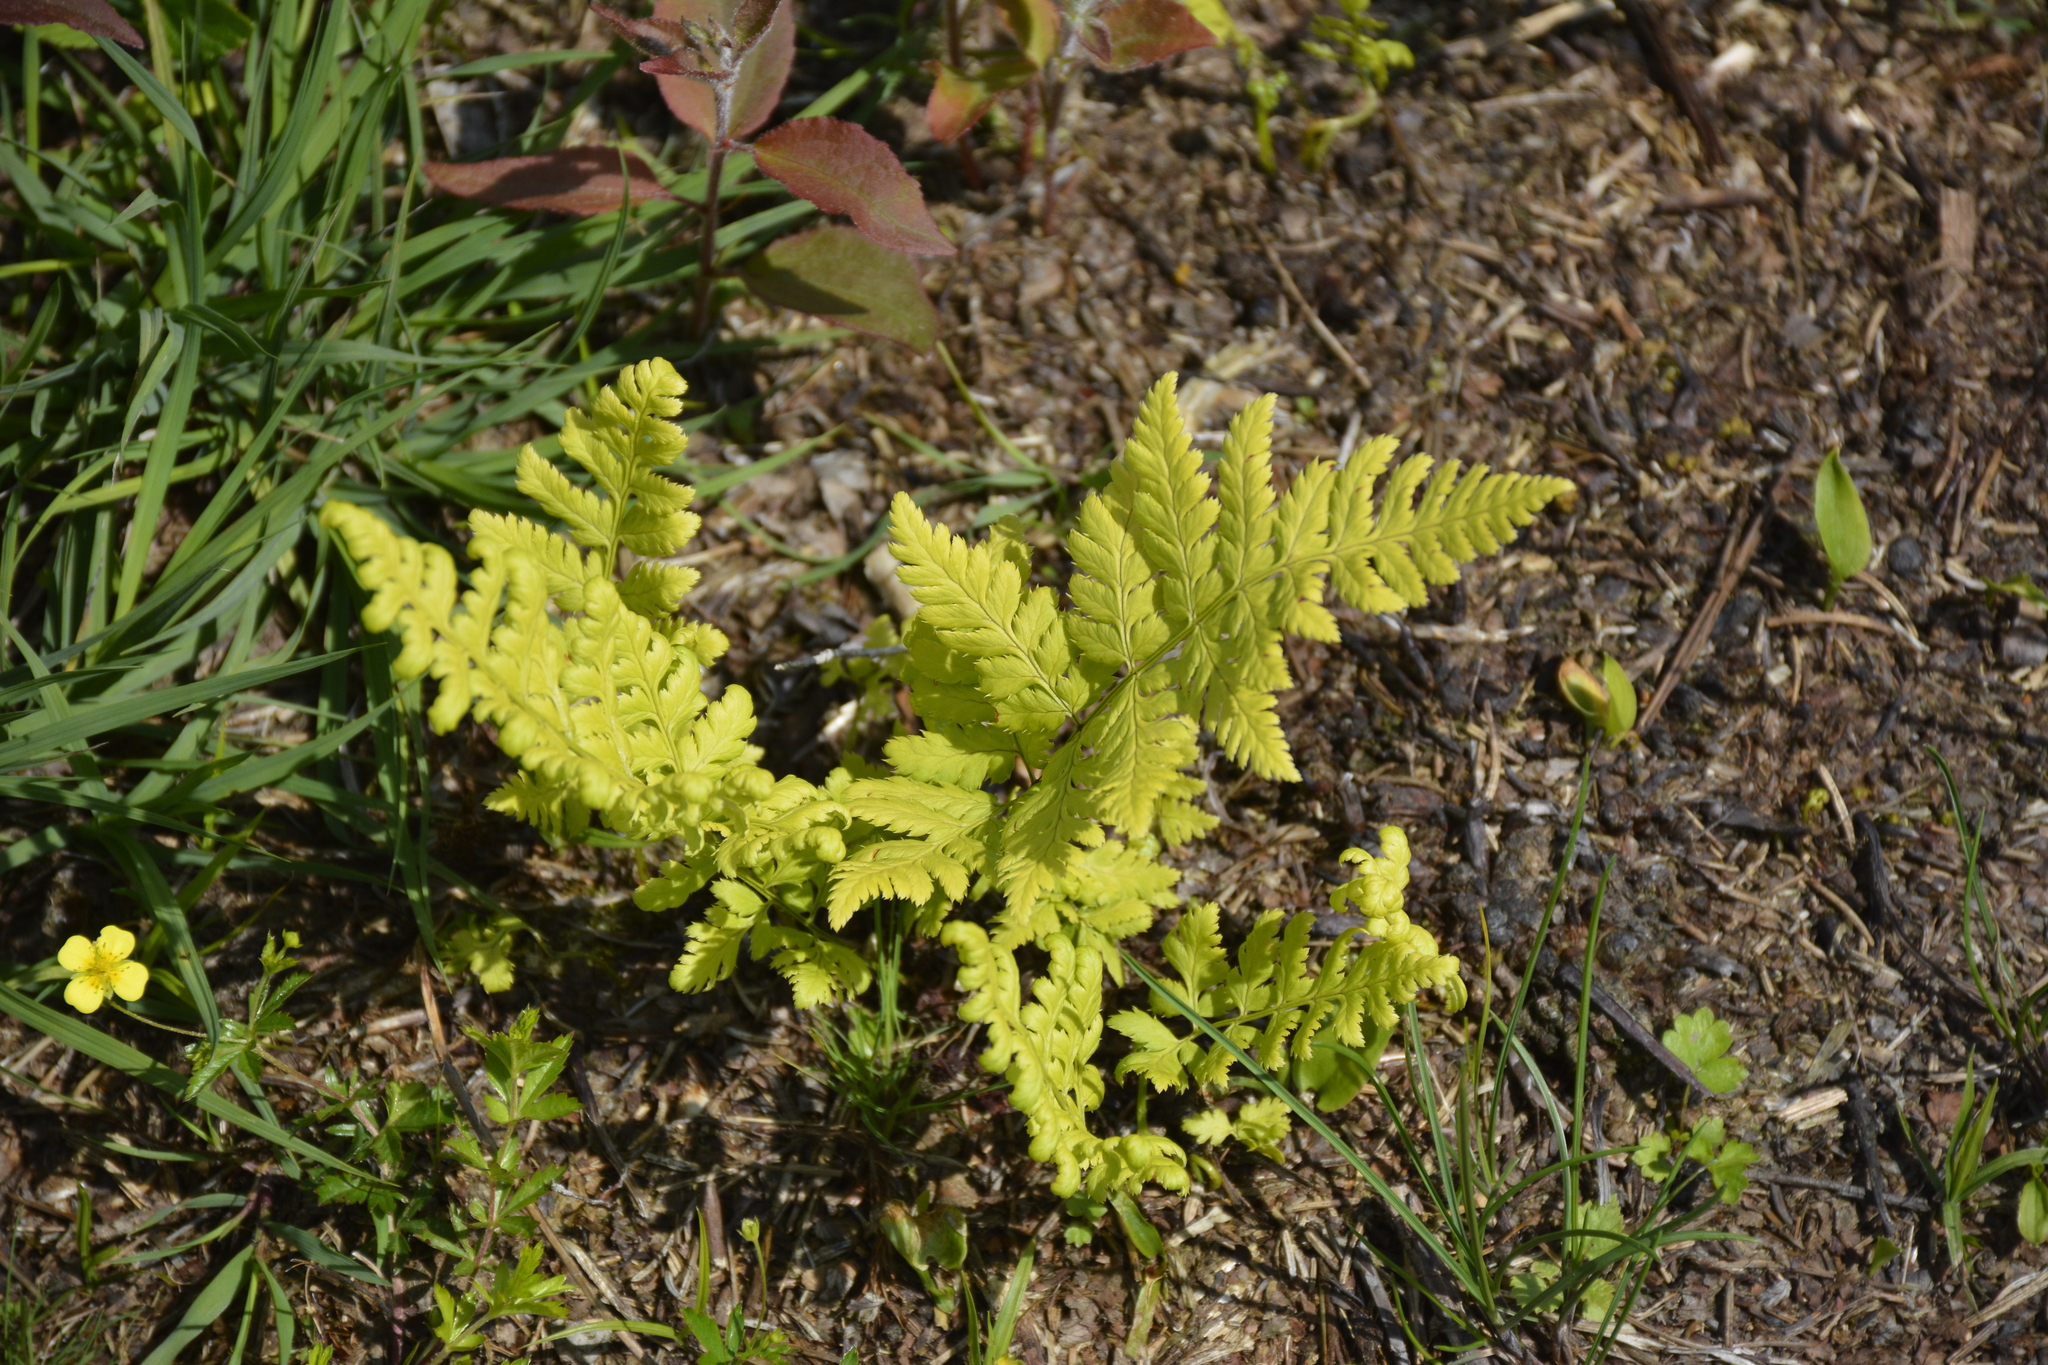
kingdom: Plantae
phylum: Tracheophyta
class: Polypodiopsida
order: Polypodiales
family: Dryopteridaceae
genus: Dryopteris
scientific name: Dryopteris carthusiana
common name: Narrow buckler-fern
